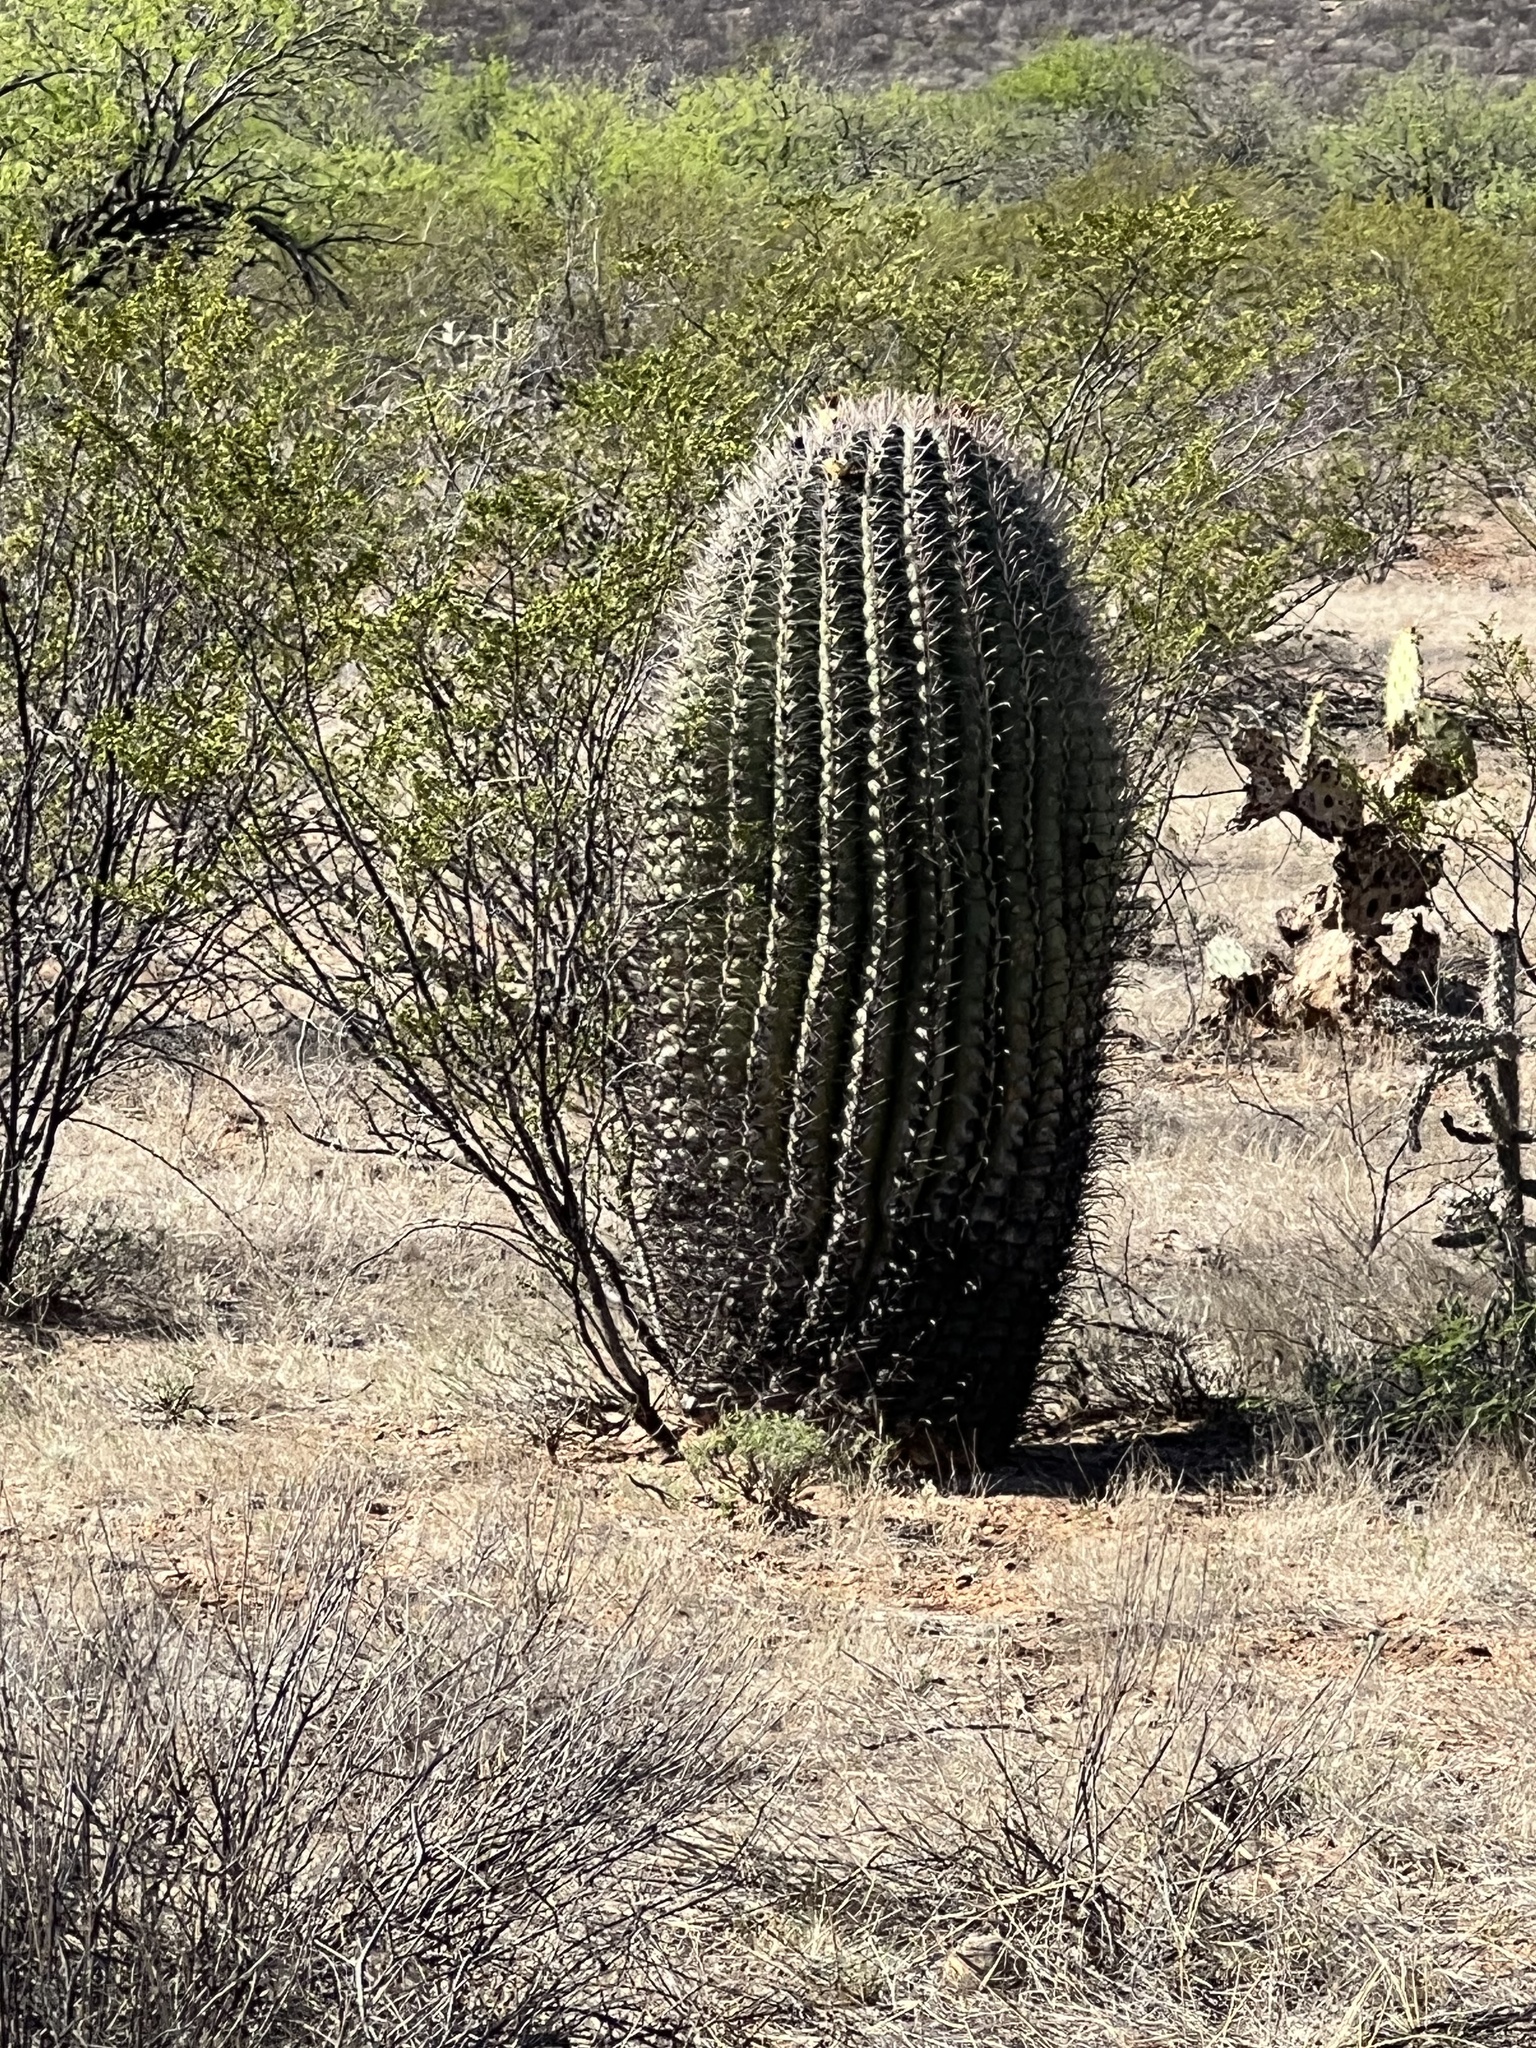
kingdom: Plantae
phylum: Tracheophyta
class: Magnoliopsida
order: Caryophyllales
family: Cactaceae
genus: Ferocactus
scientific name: Ferocactus wislizeni
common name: Candy barrel cactus
